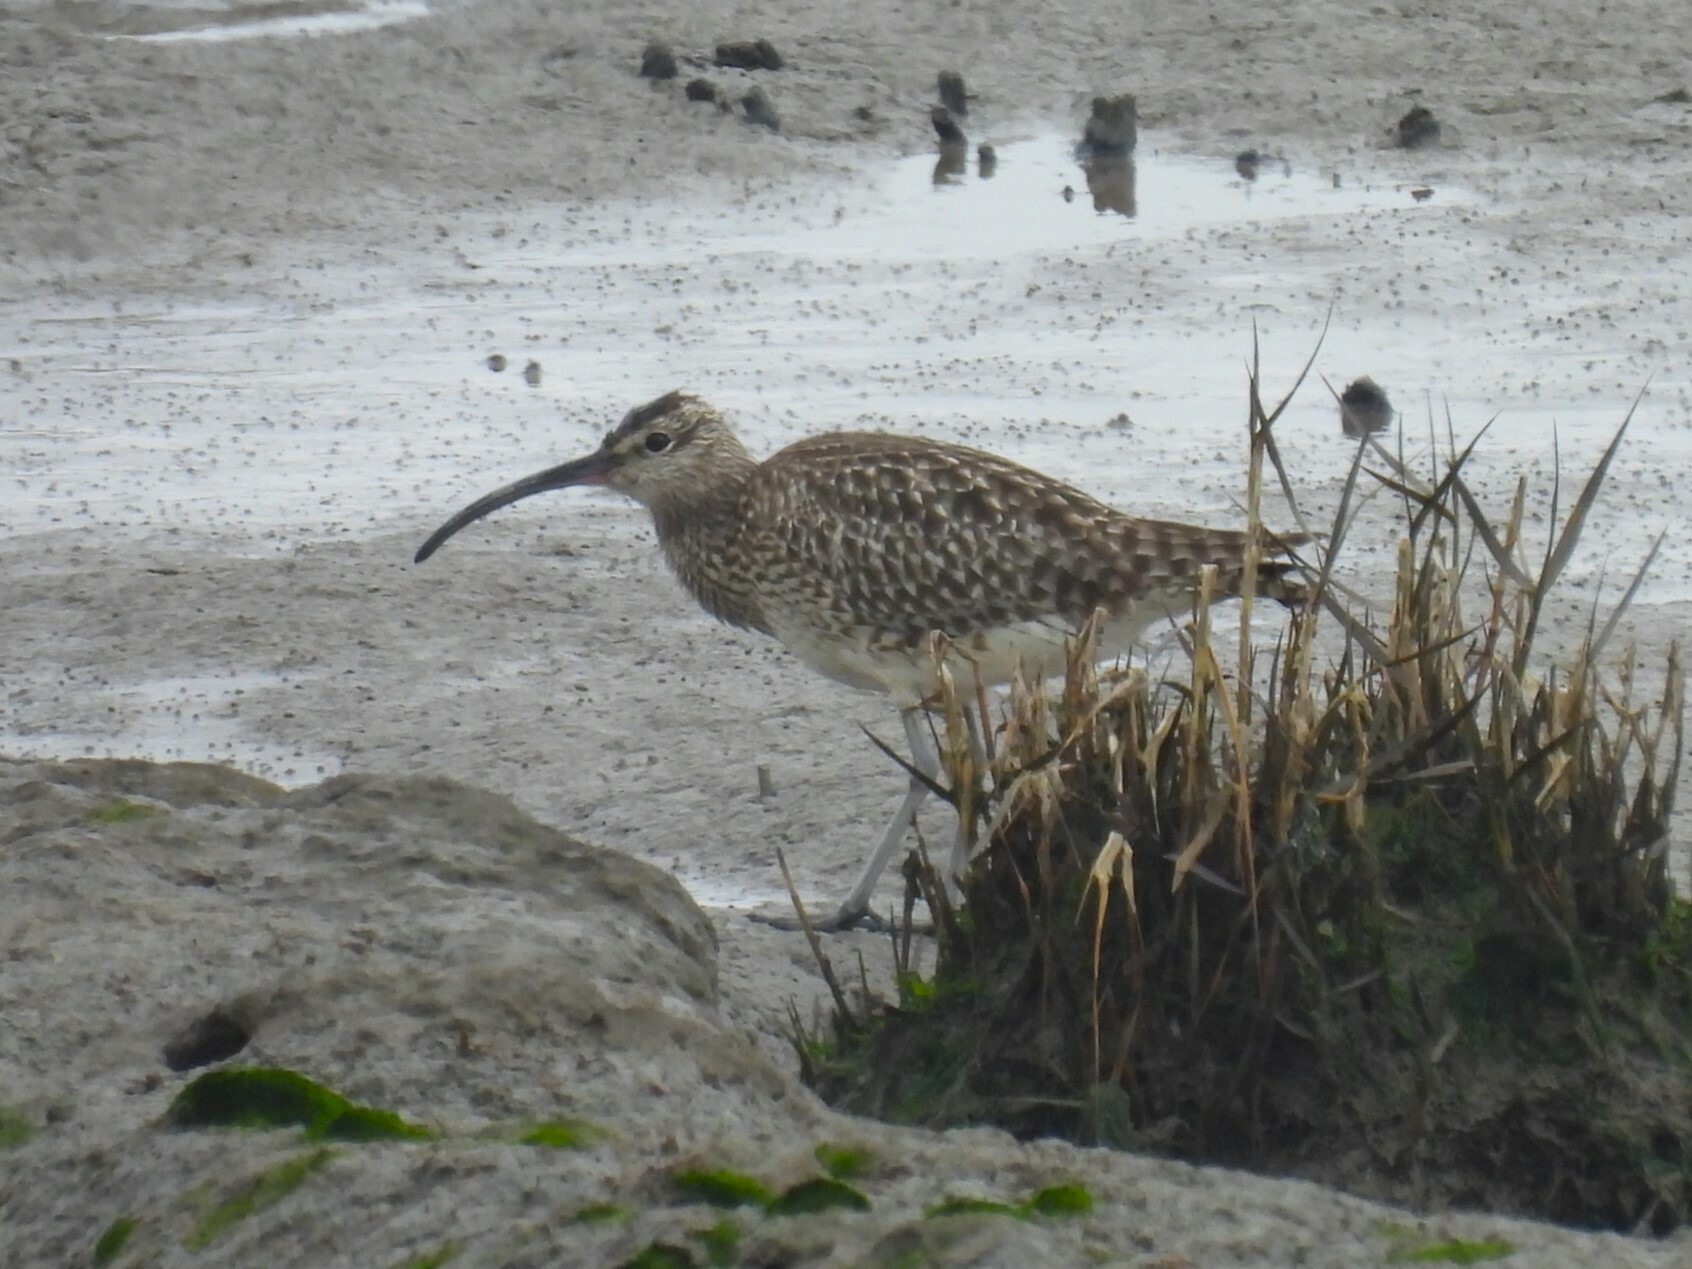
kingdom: Animalia
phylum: Chordata
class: Aves
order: Charadriiformes
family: Scolopacidae
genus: Numenius
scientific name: Numenius phaeopus
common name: Whimbrel
